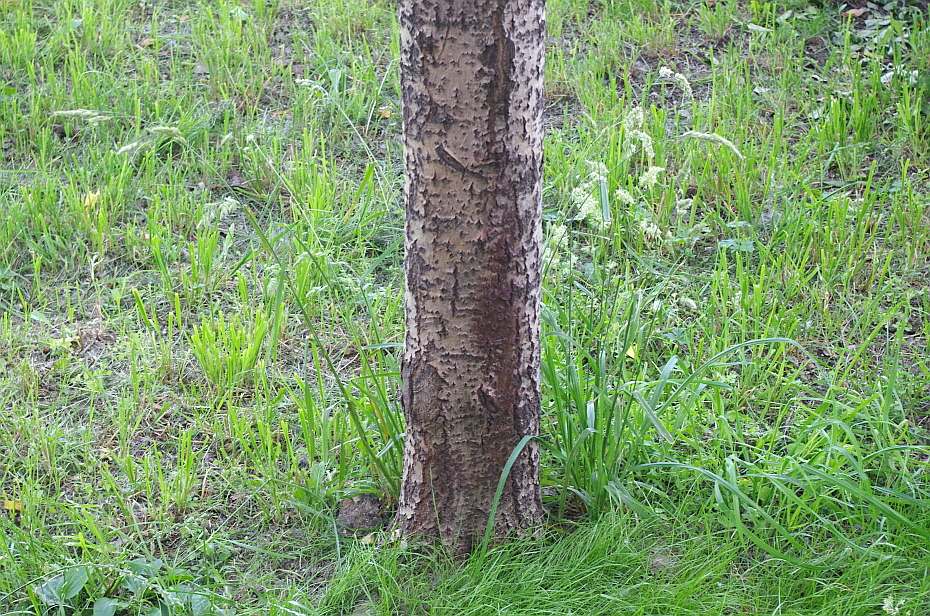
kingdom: Plantae
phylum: Tracheophyta
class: Liliopsida
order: Poales
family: Poaceae
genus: Dactylis
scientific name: Dactylis glomerata
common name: Orchardgrass
